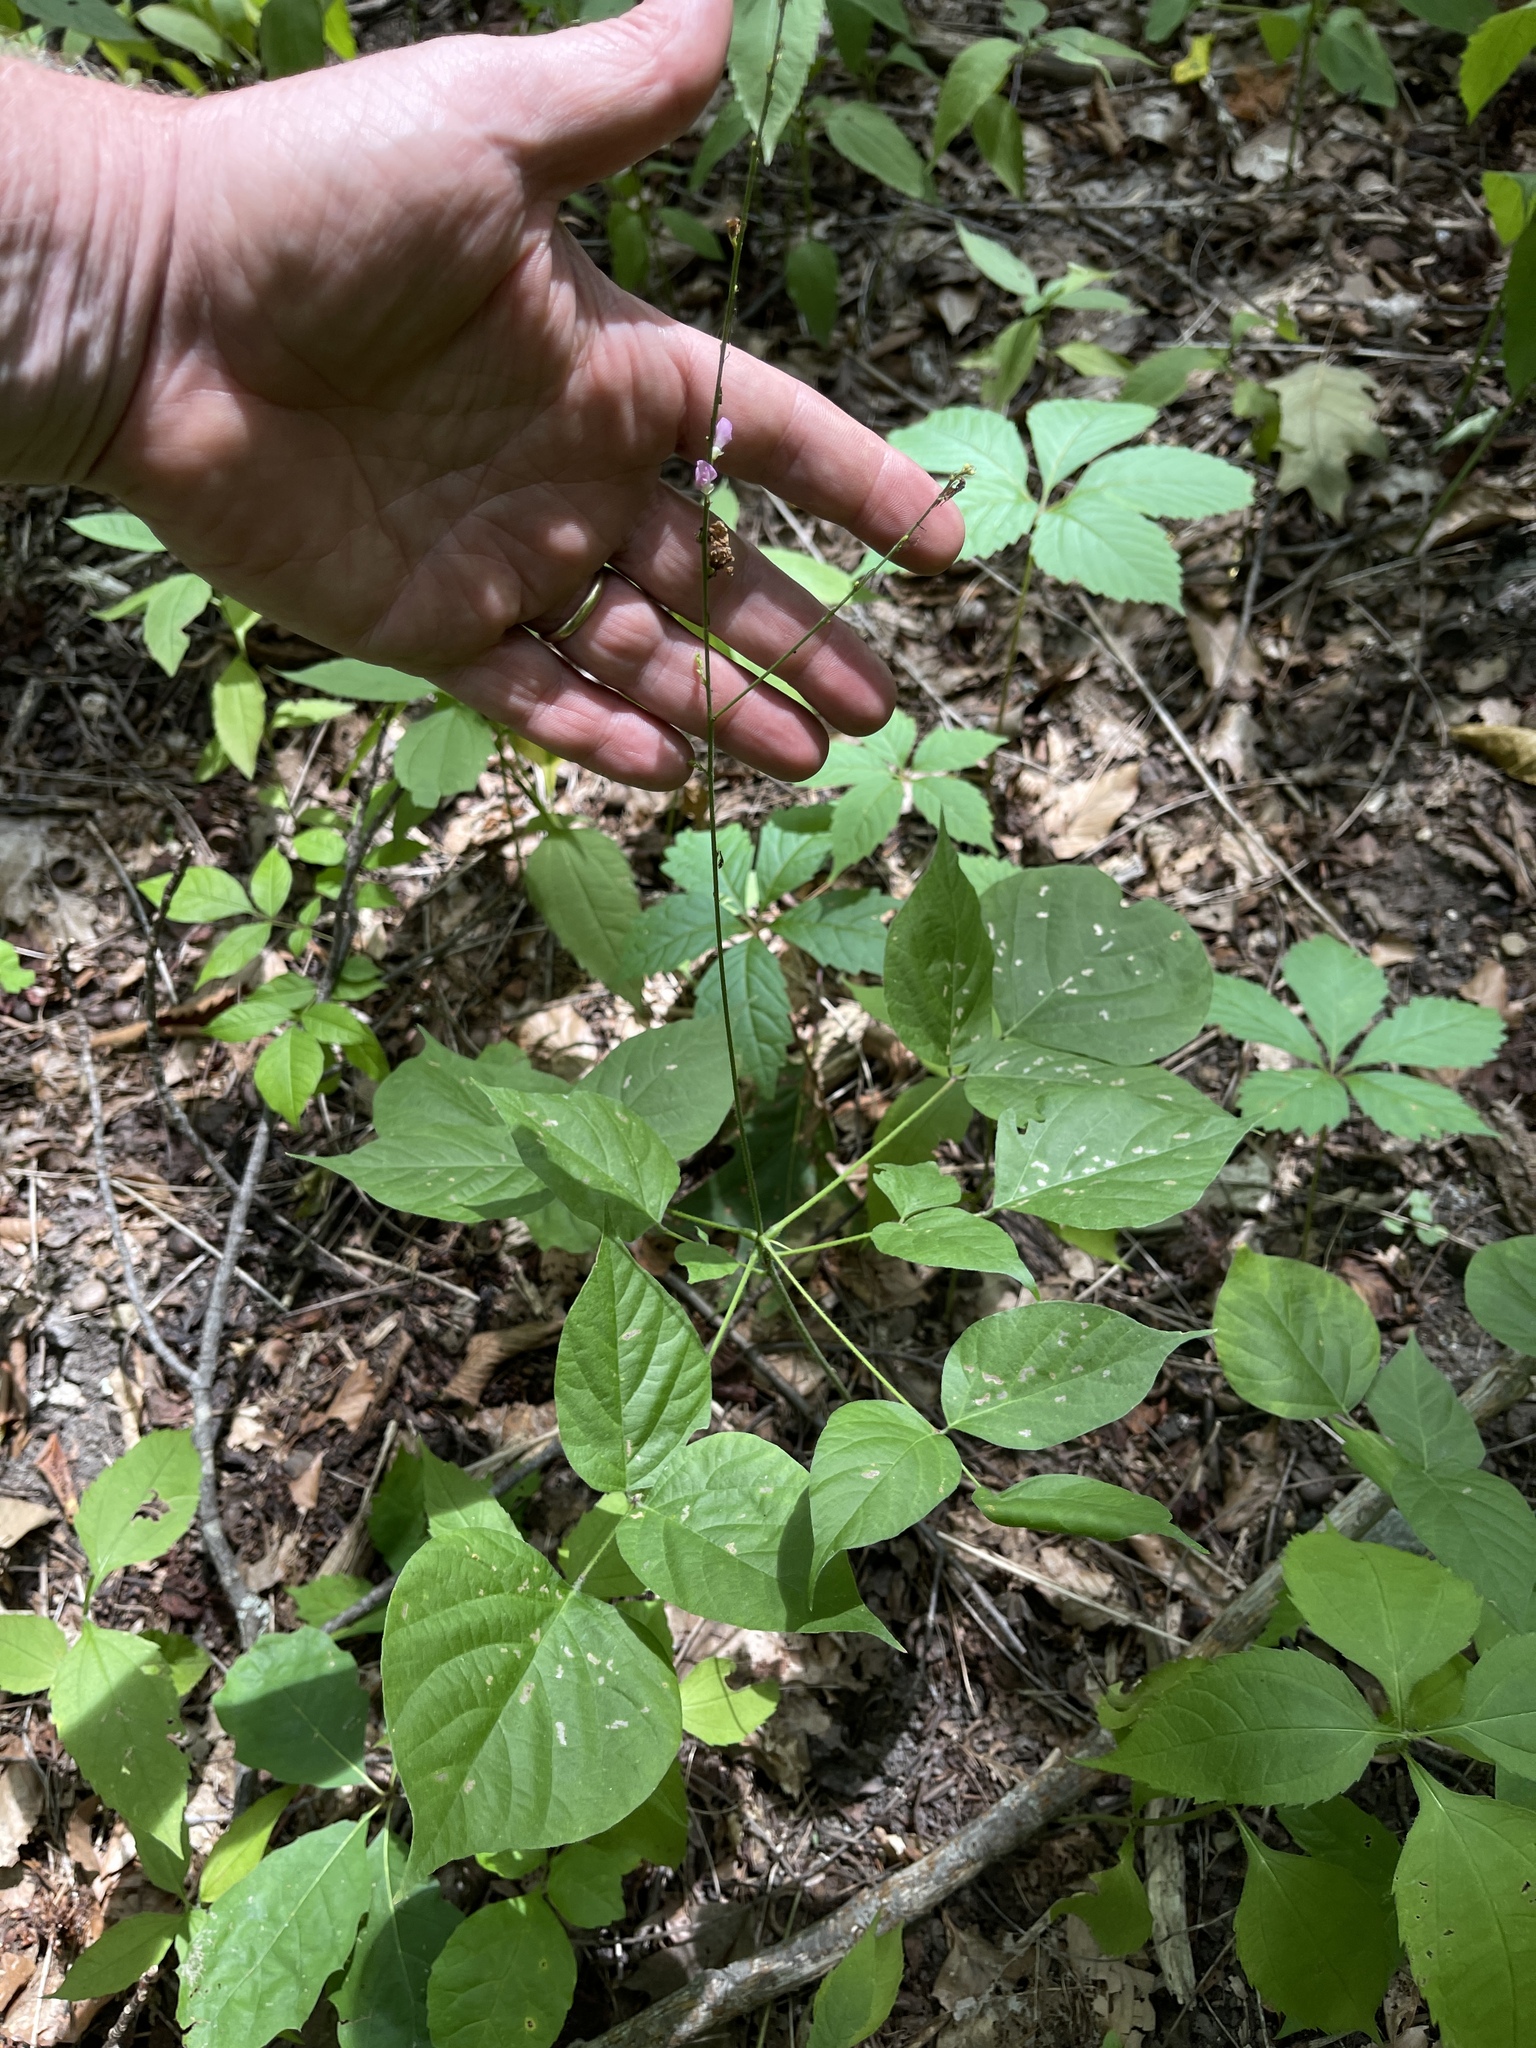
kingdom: Plantae
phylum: Tracheophyta
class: Magnoliopsida
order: Fabales
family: Fabaceae
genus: Hylodesmum
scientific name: Hylodesmum glutinosum
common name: Clustered-leaved tick-trefoil
